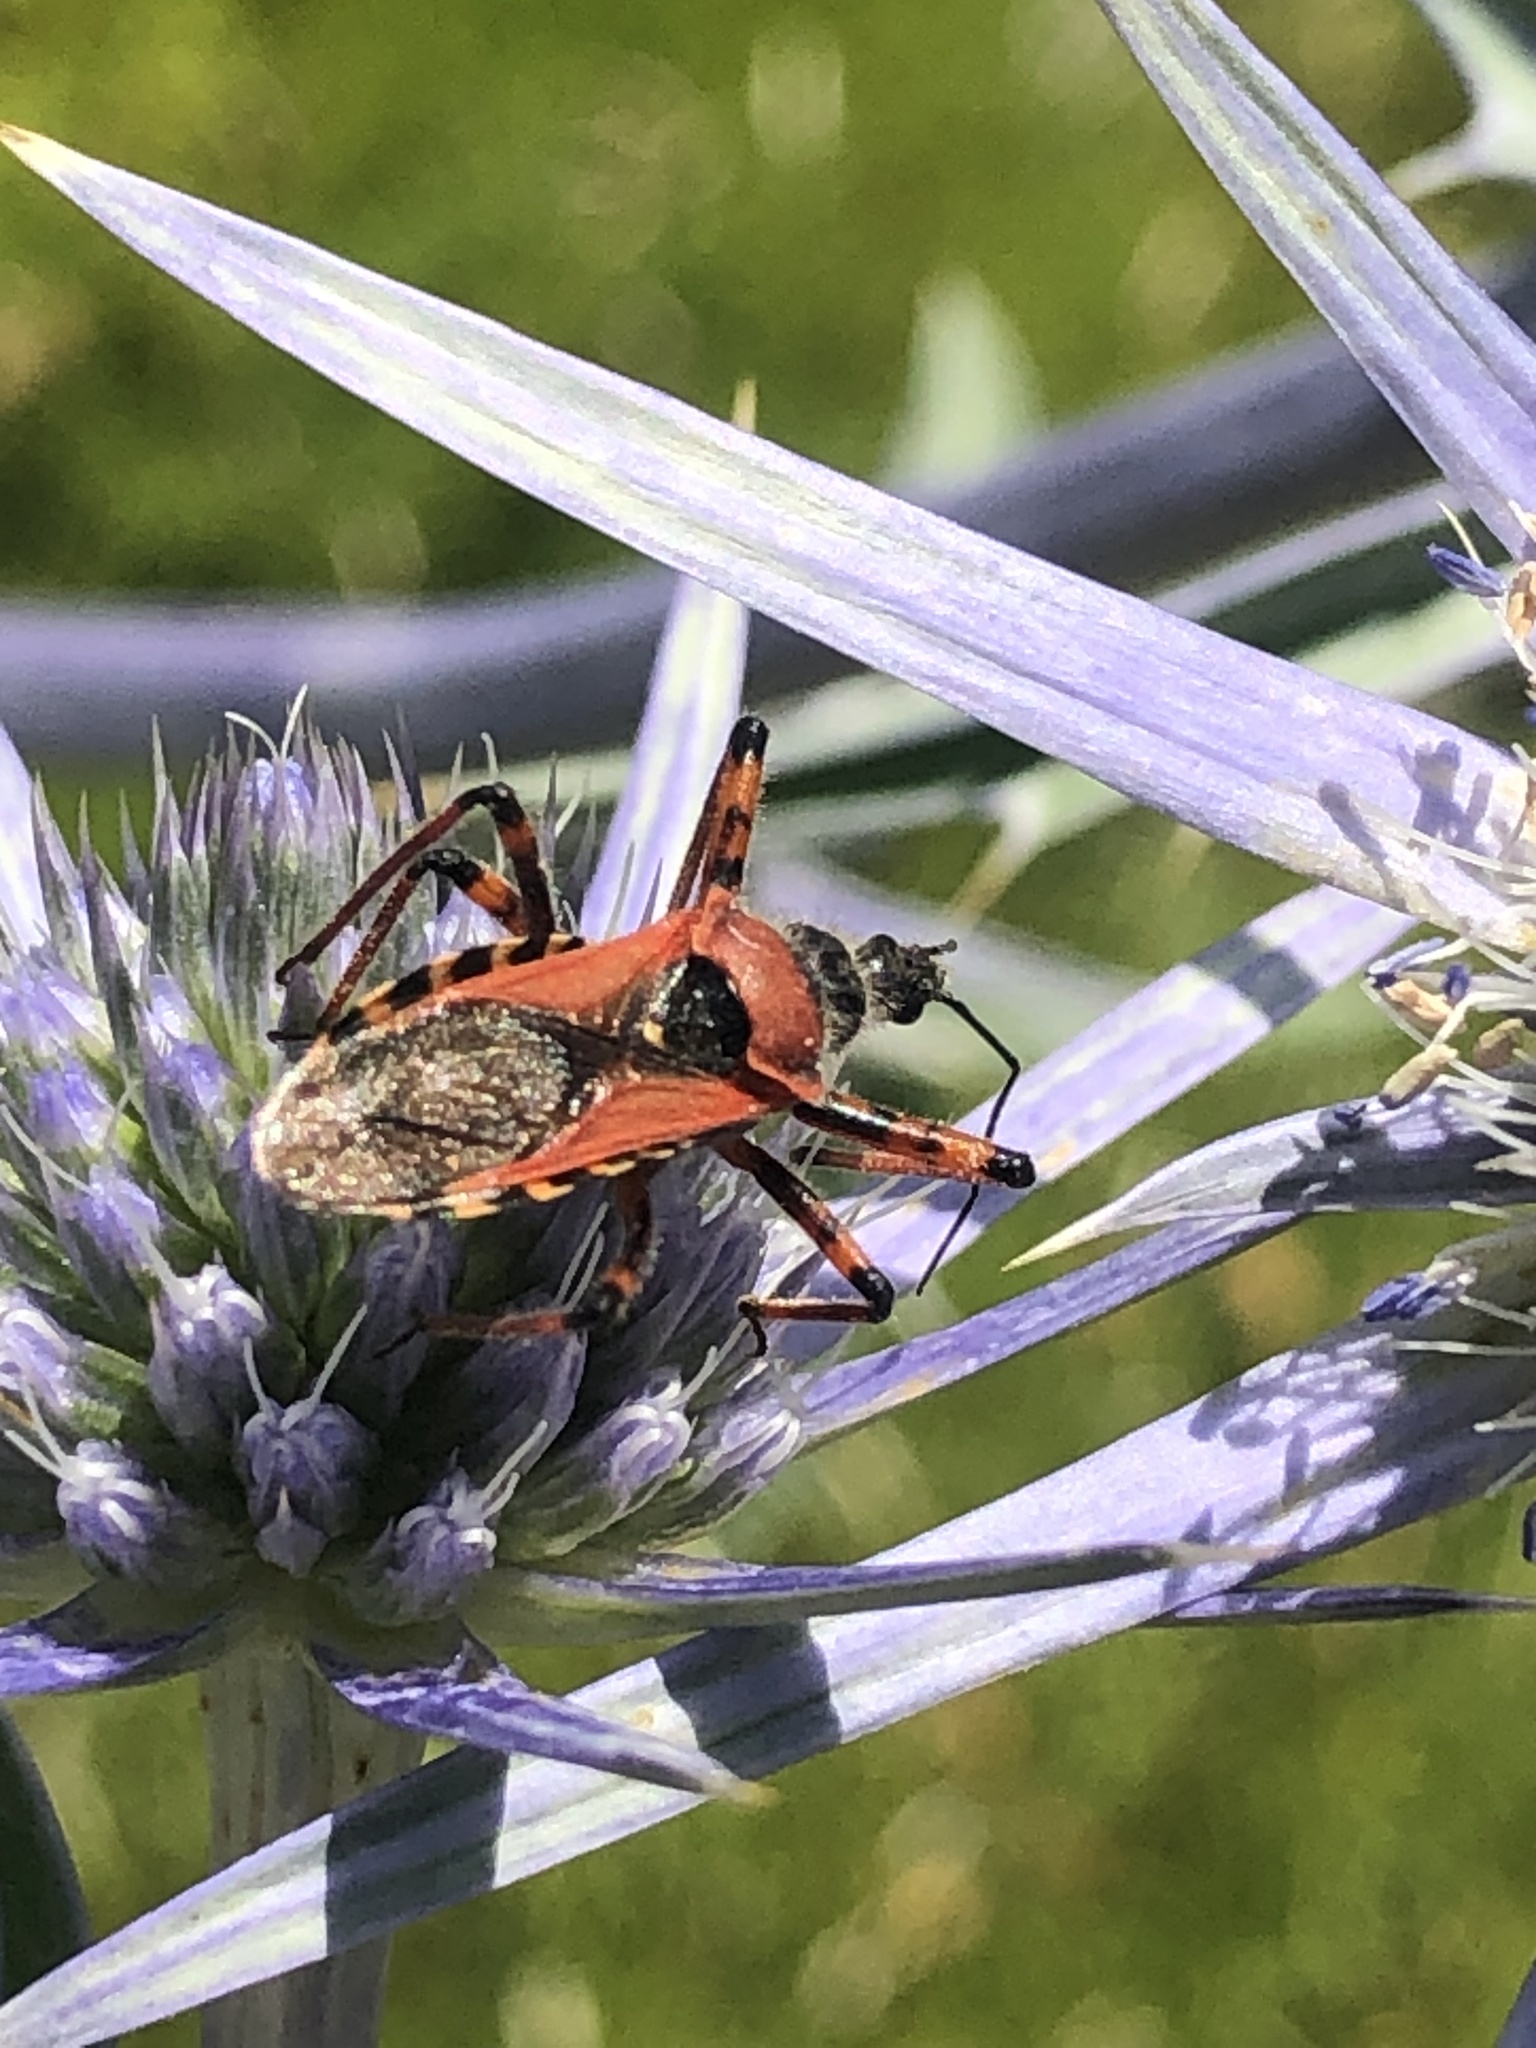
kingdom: Animalia
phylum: Arthropoda
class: Insecta
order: Hemiptera
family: Reduviidae
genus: Rhynocoris
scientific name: Rhynocoris iracundus
